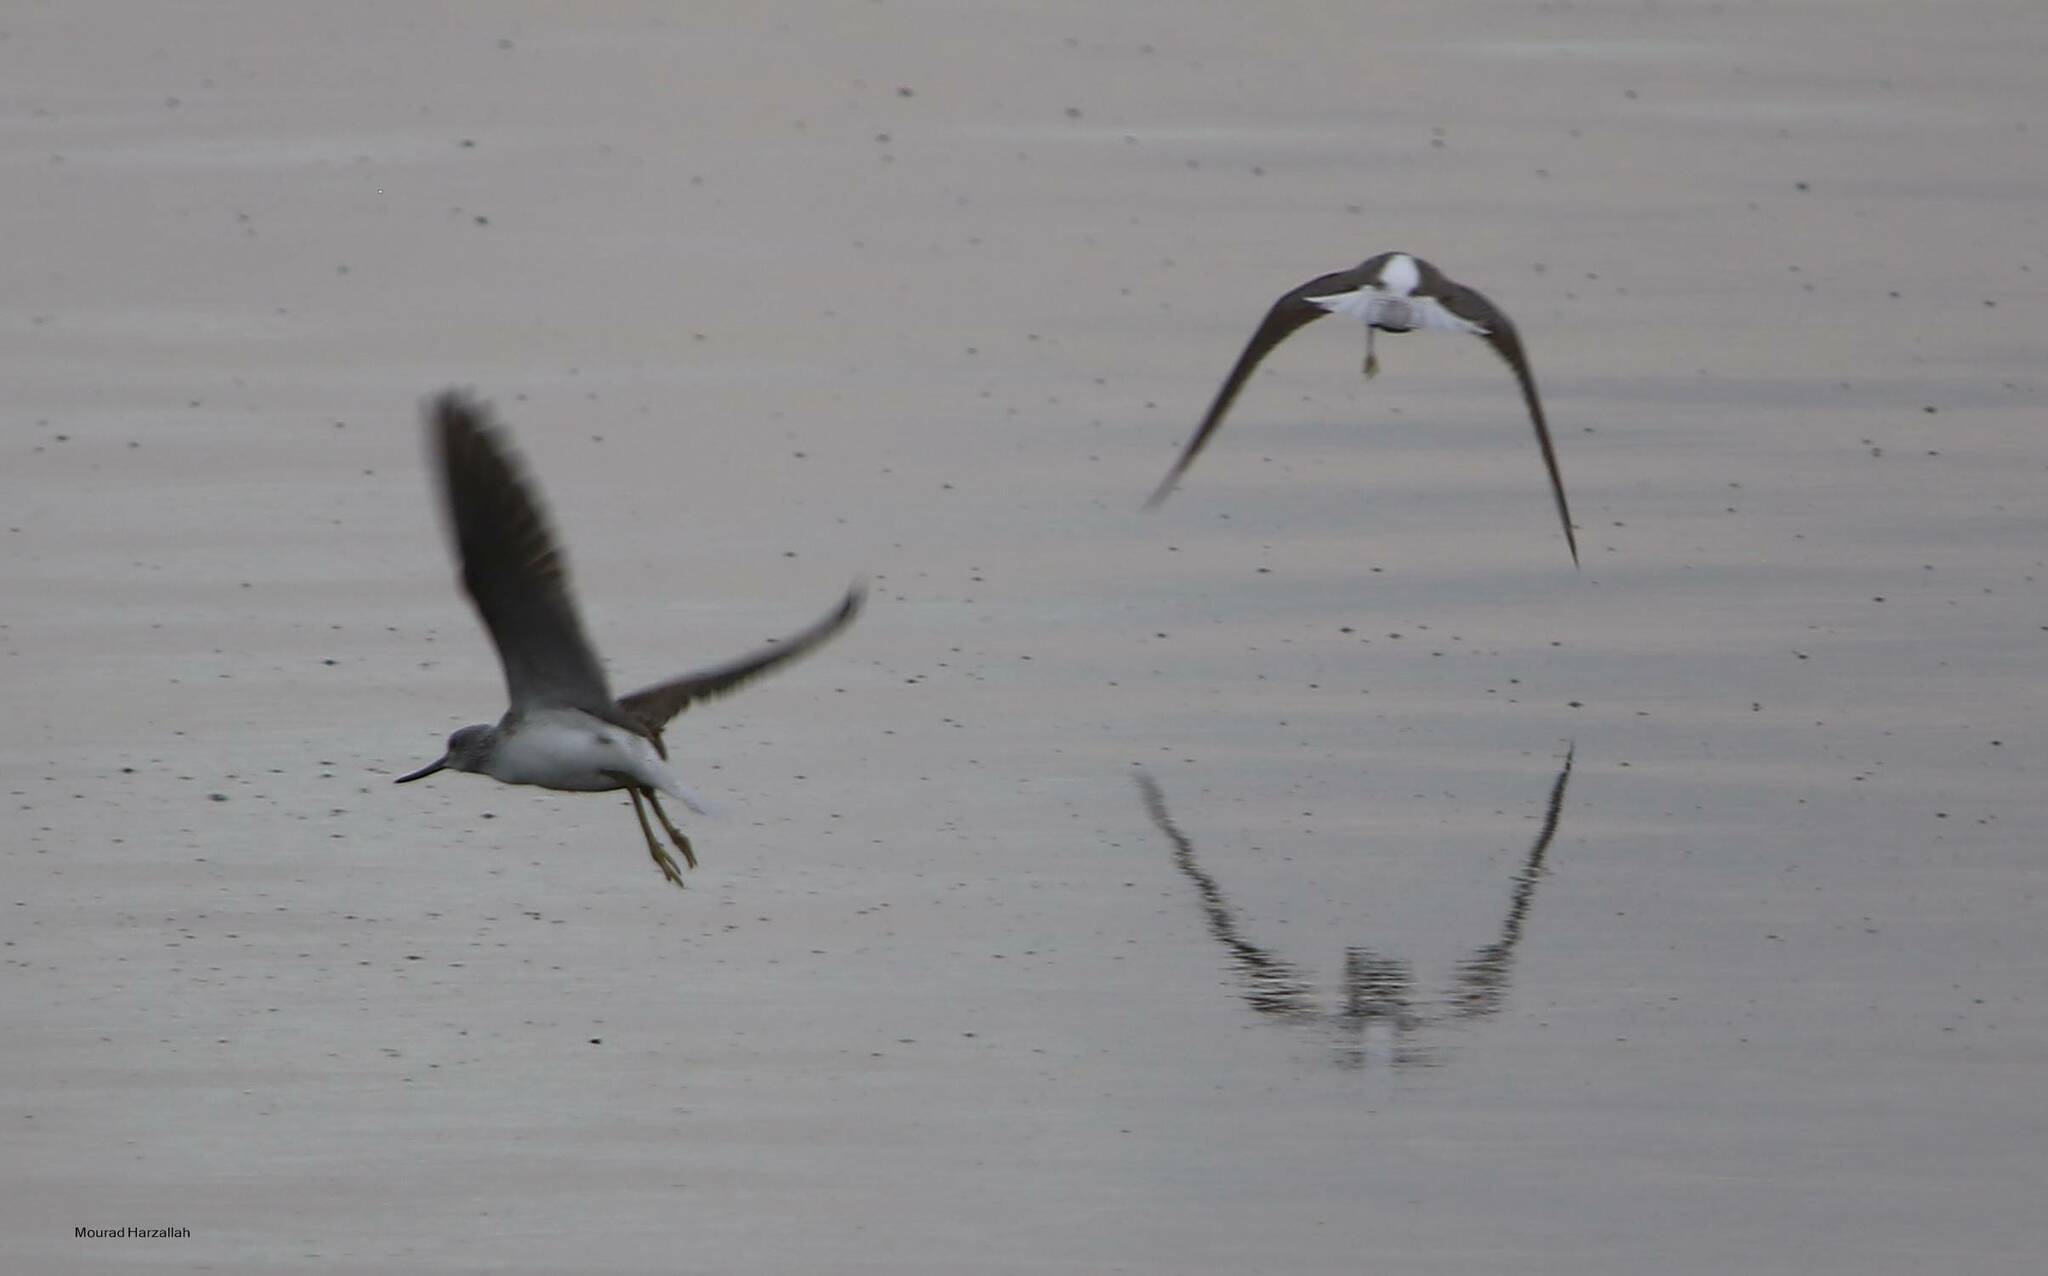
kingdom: Animalia
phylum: Chordata
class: Aves
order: Charadriiformes
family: Scolopacidae
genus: Tringa
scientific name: Tringa nebularia
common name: Common greenshank
